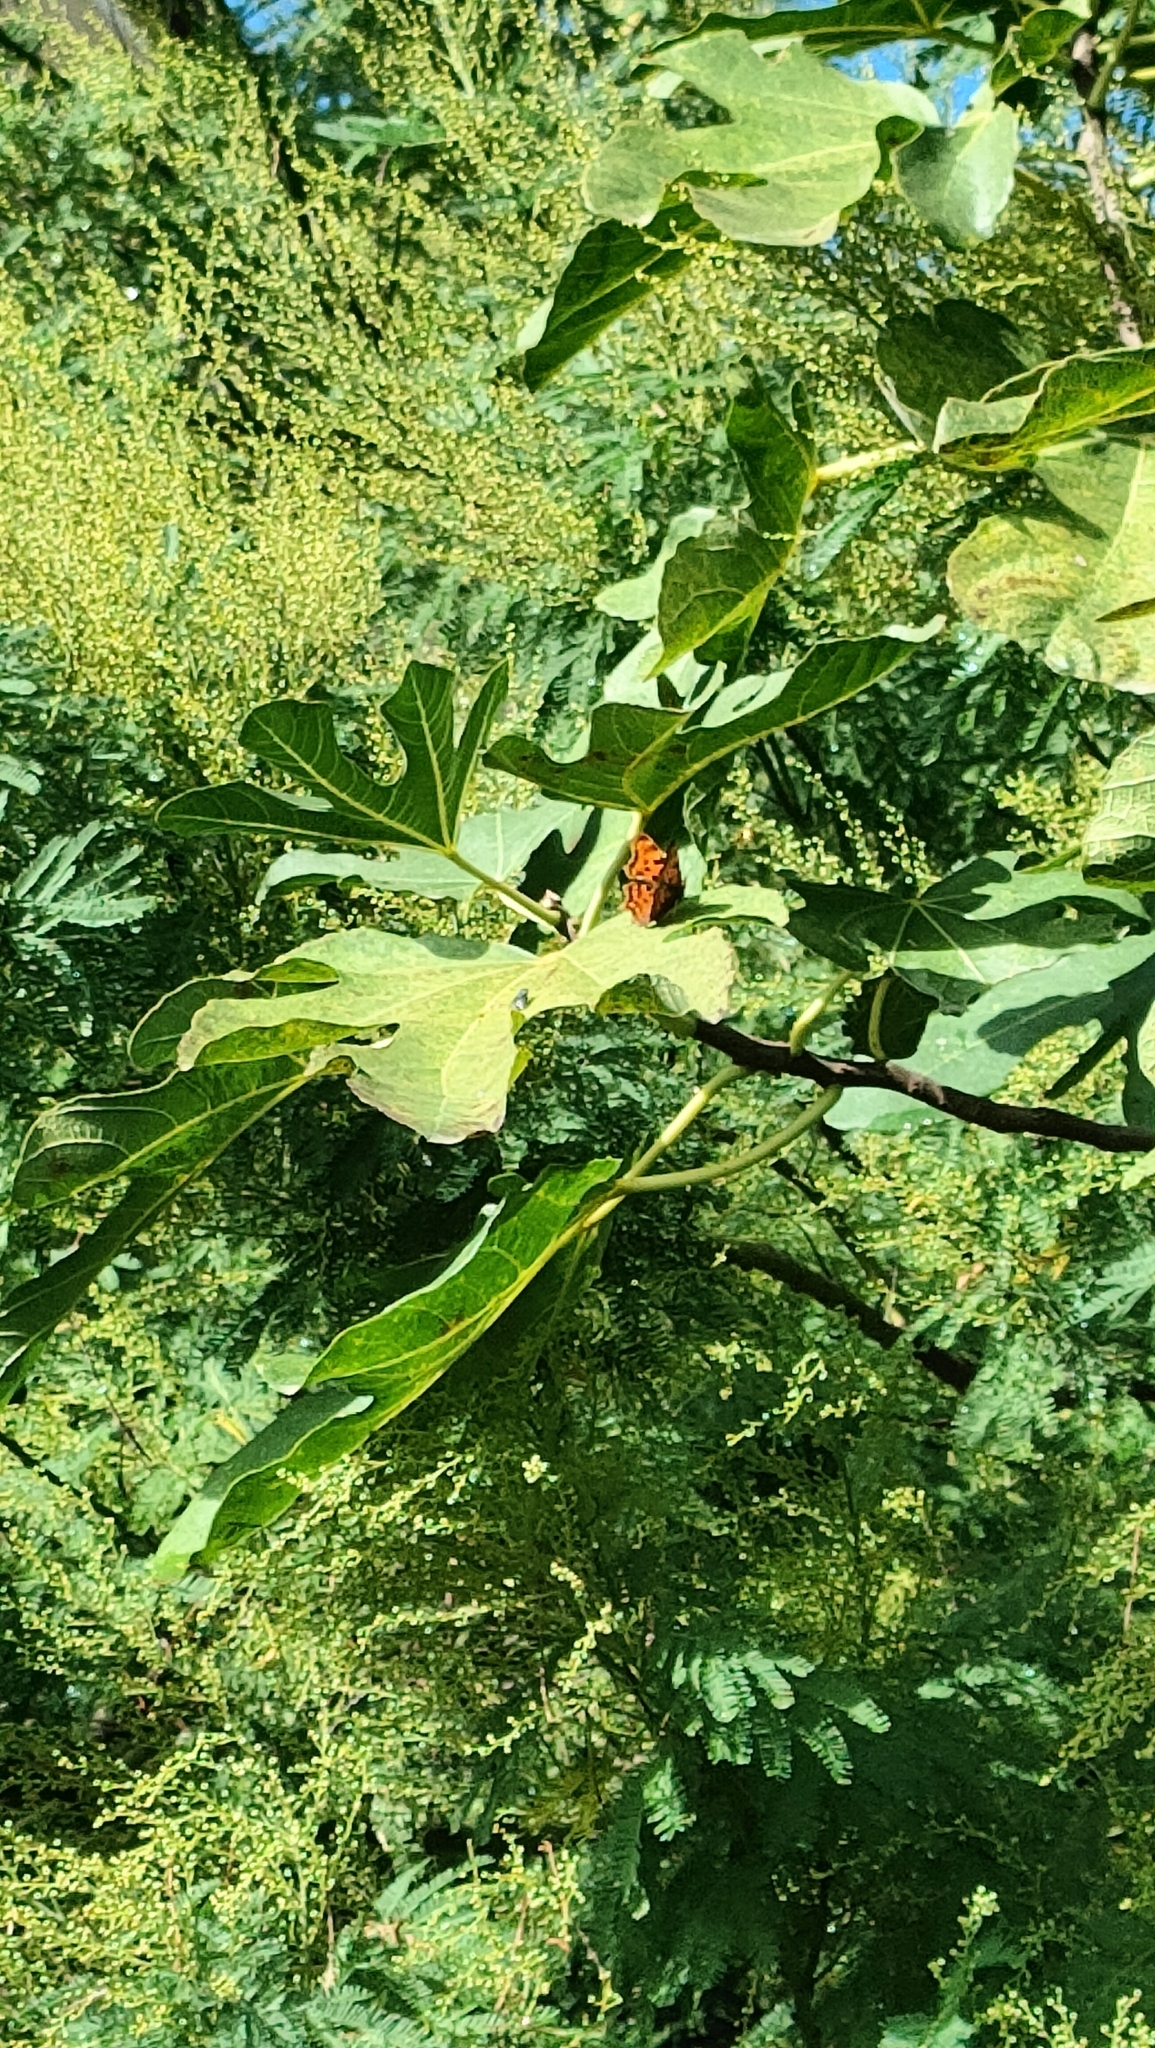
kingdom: Animalia
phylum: Arthropoda
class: Insecta
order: Lepidoptera
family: Nymphalidae
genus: Polygonia
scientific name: Polygonia c-album
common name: Comma
